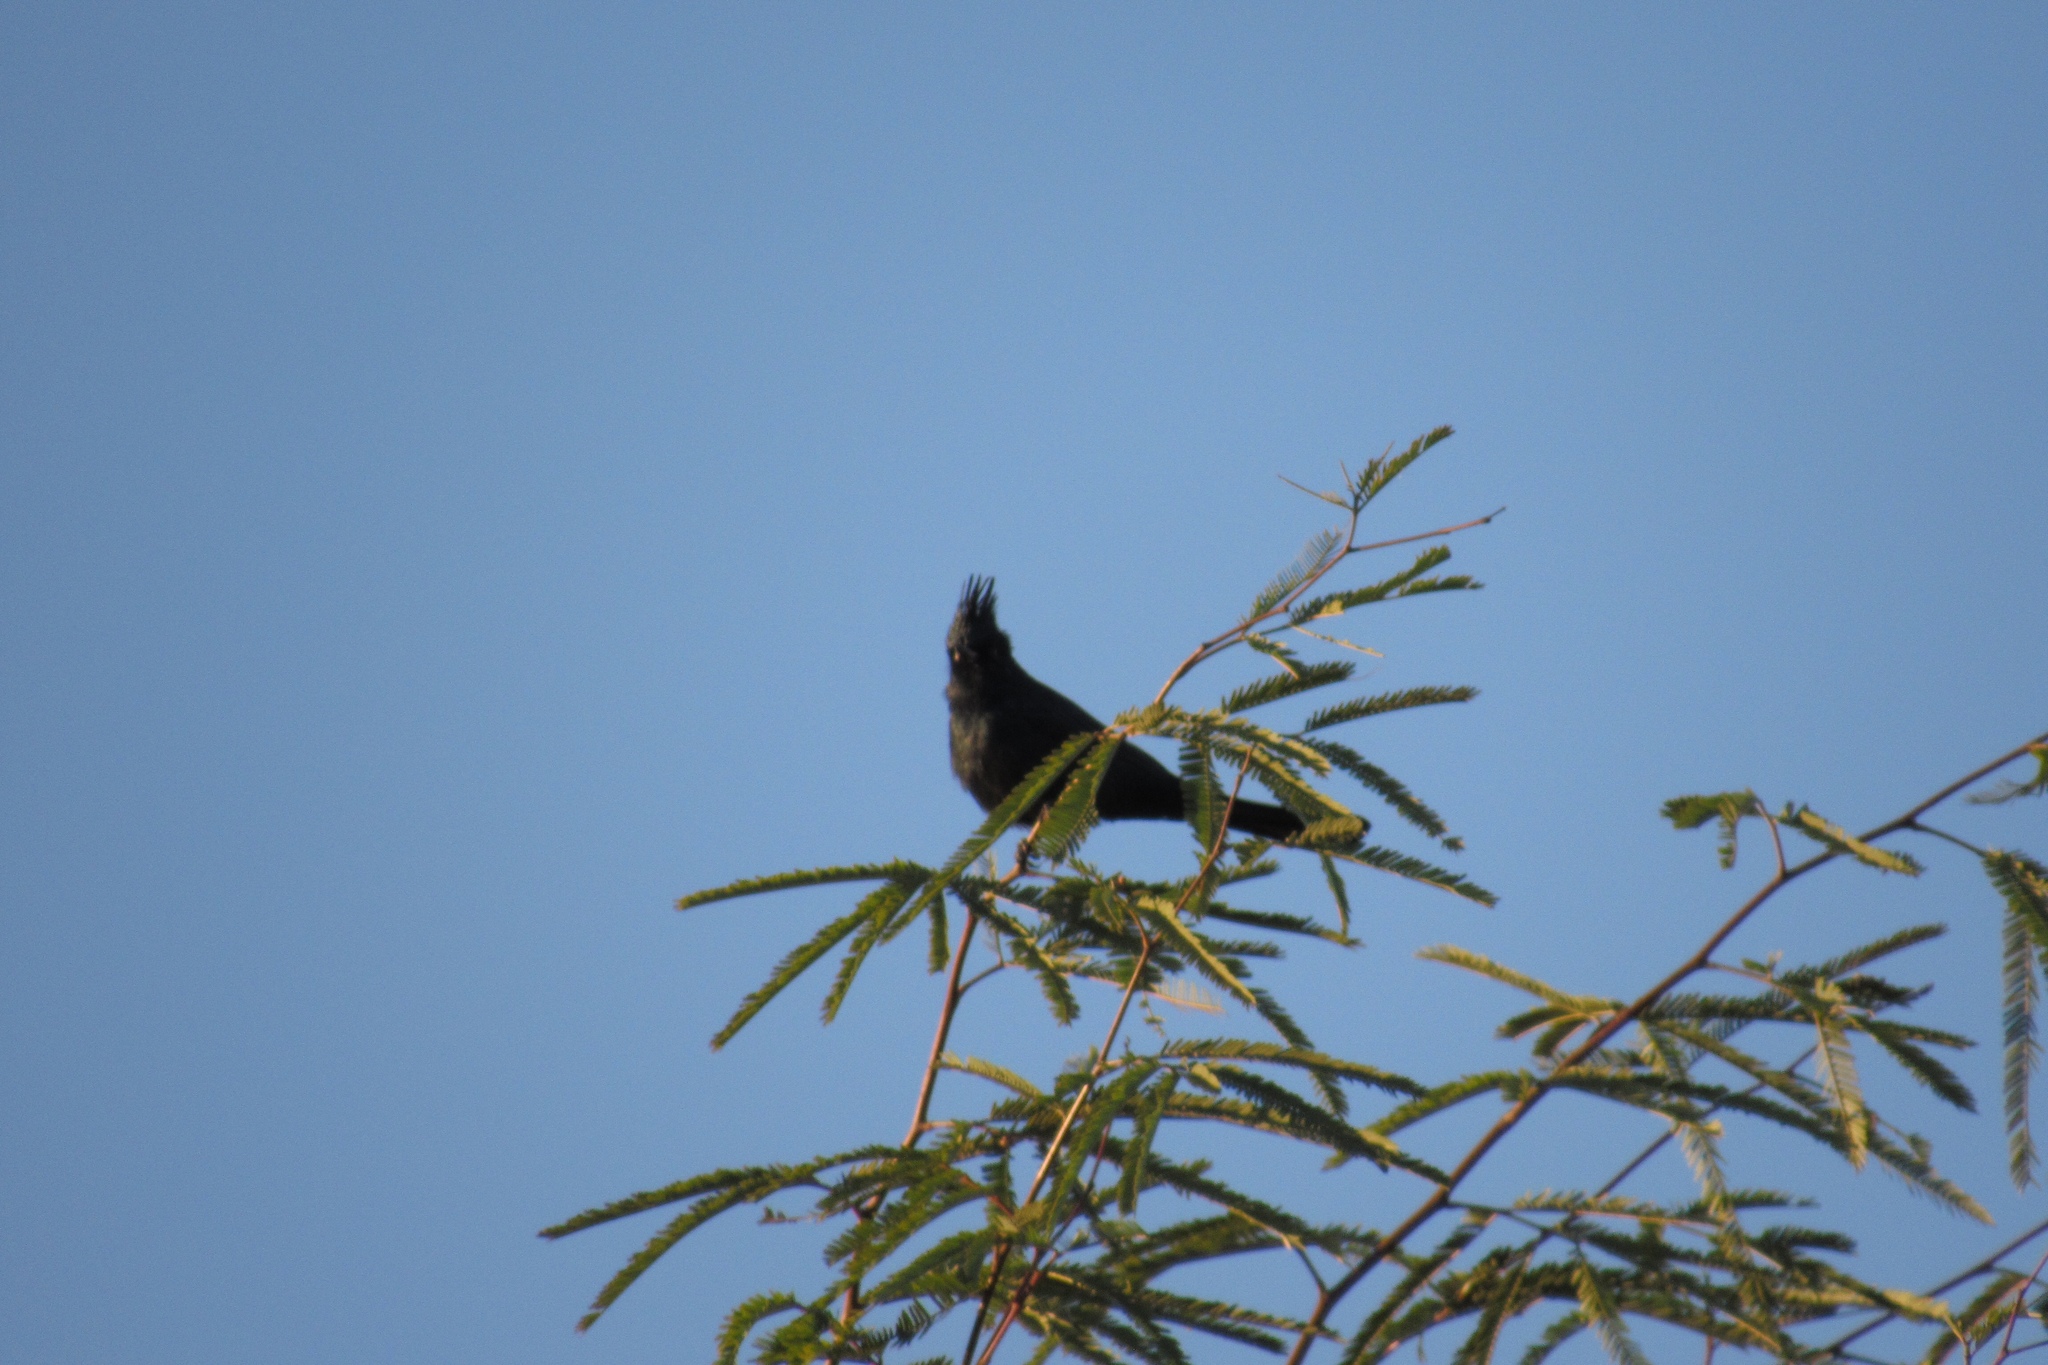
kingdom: Animalia
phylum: Chordata
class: Aves
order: Passeriformes
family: Ptilogonatidae
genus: Phainopepla
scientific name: Phainopepla nitens
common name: Phainopepla
